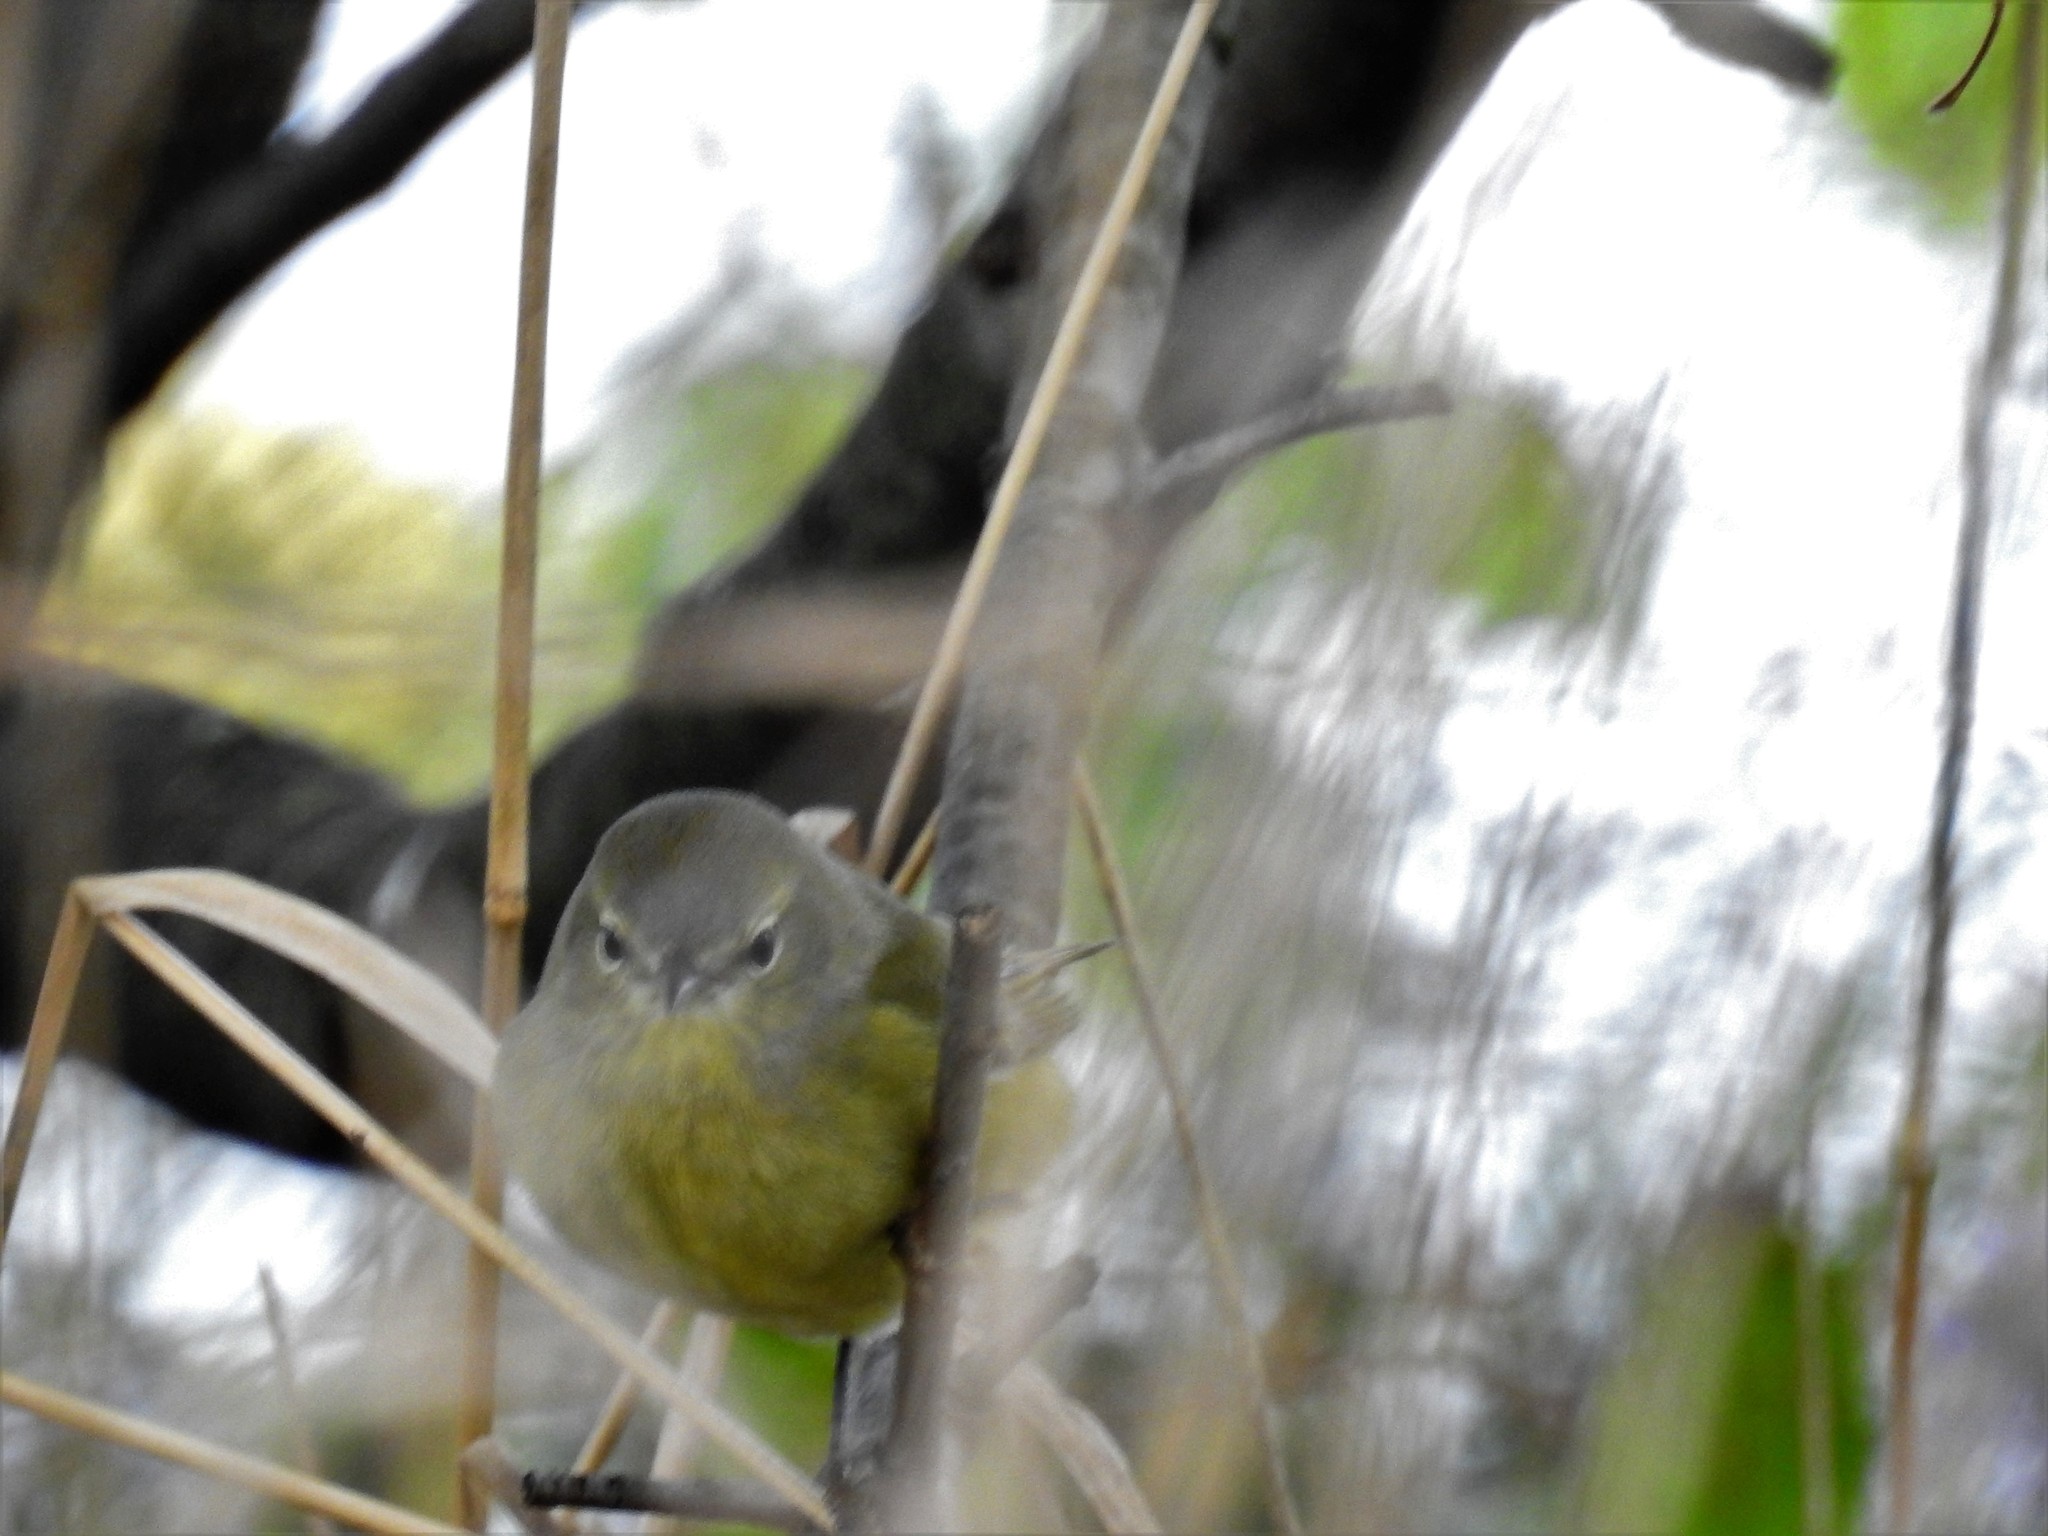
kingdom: Animalia
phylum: Chordata
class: Aves
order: Passeriformes
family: Parulidae
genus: Leiothlypis
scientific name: Leiothlypis celata
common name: Orange-crowned warbler
